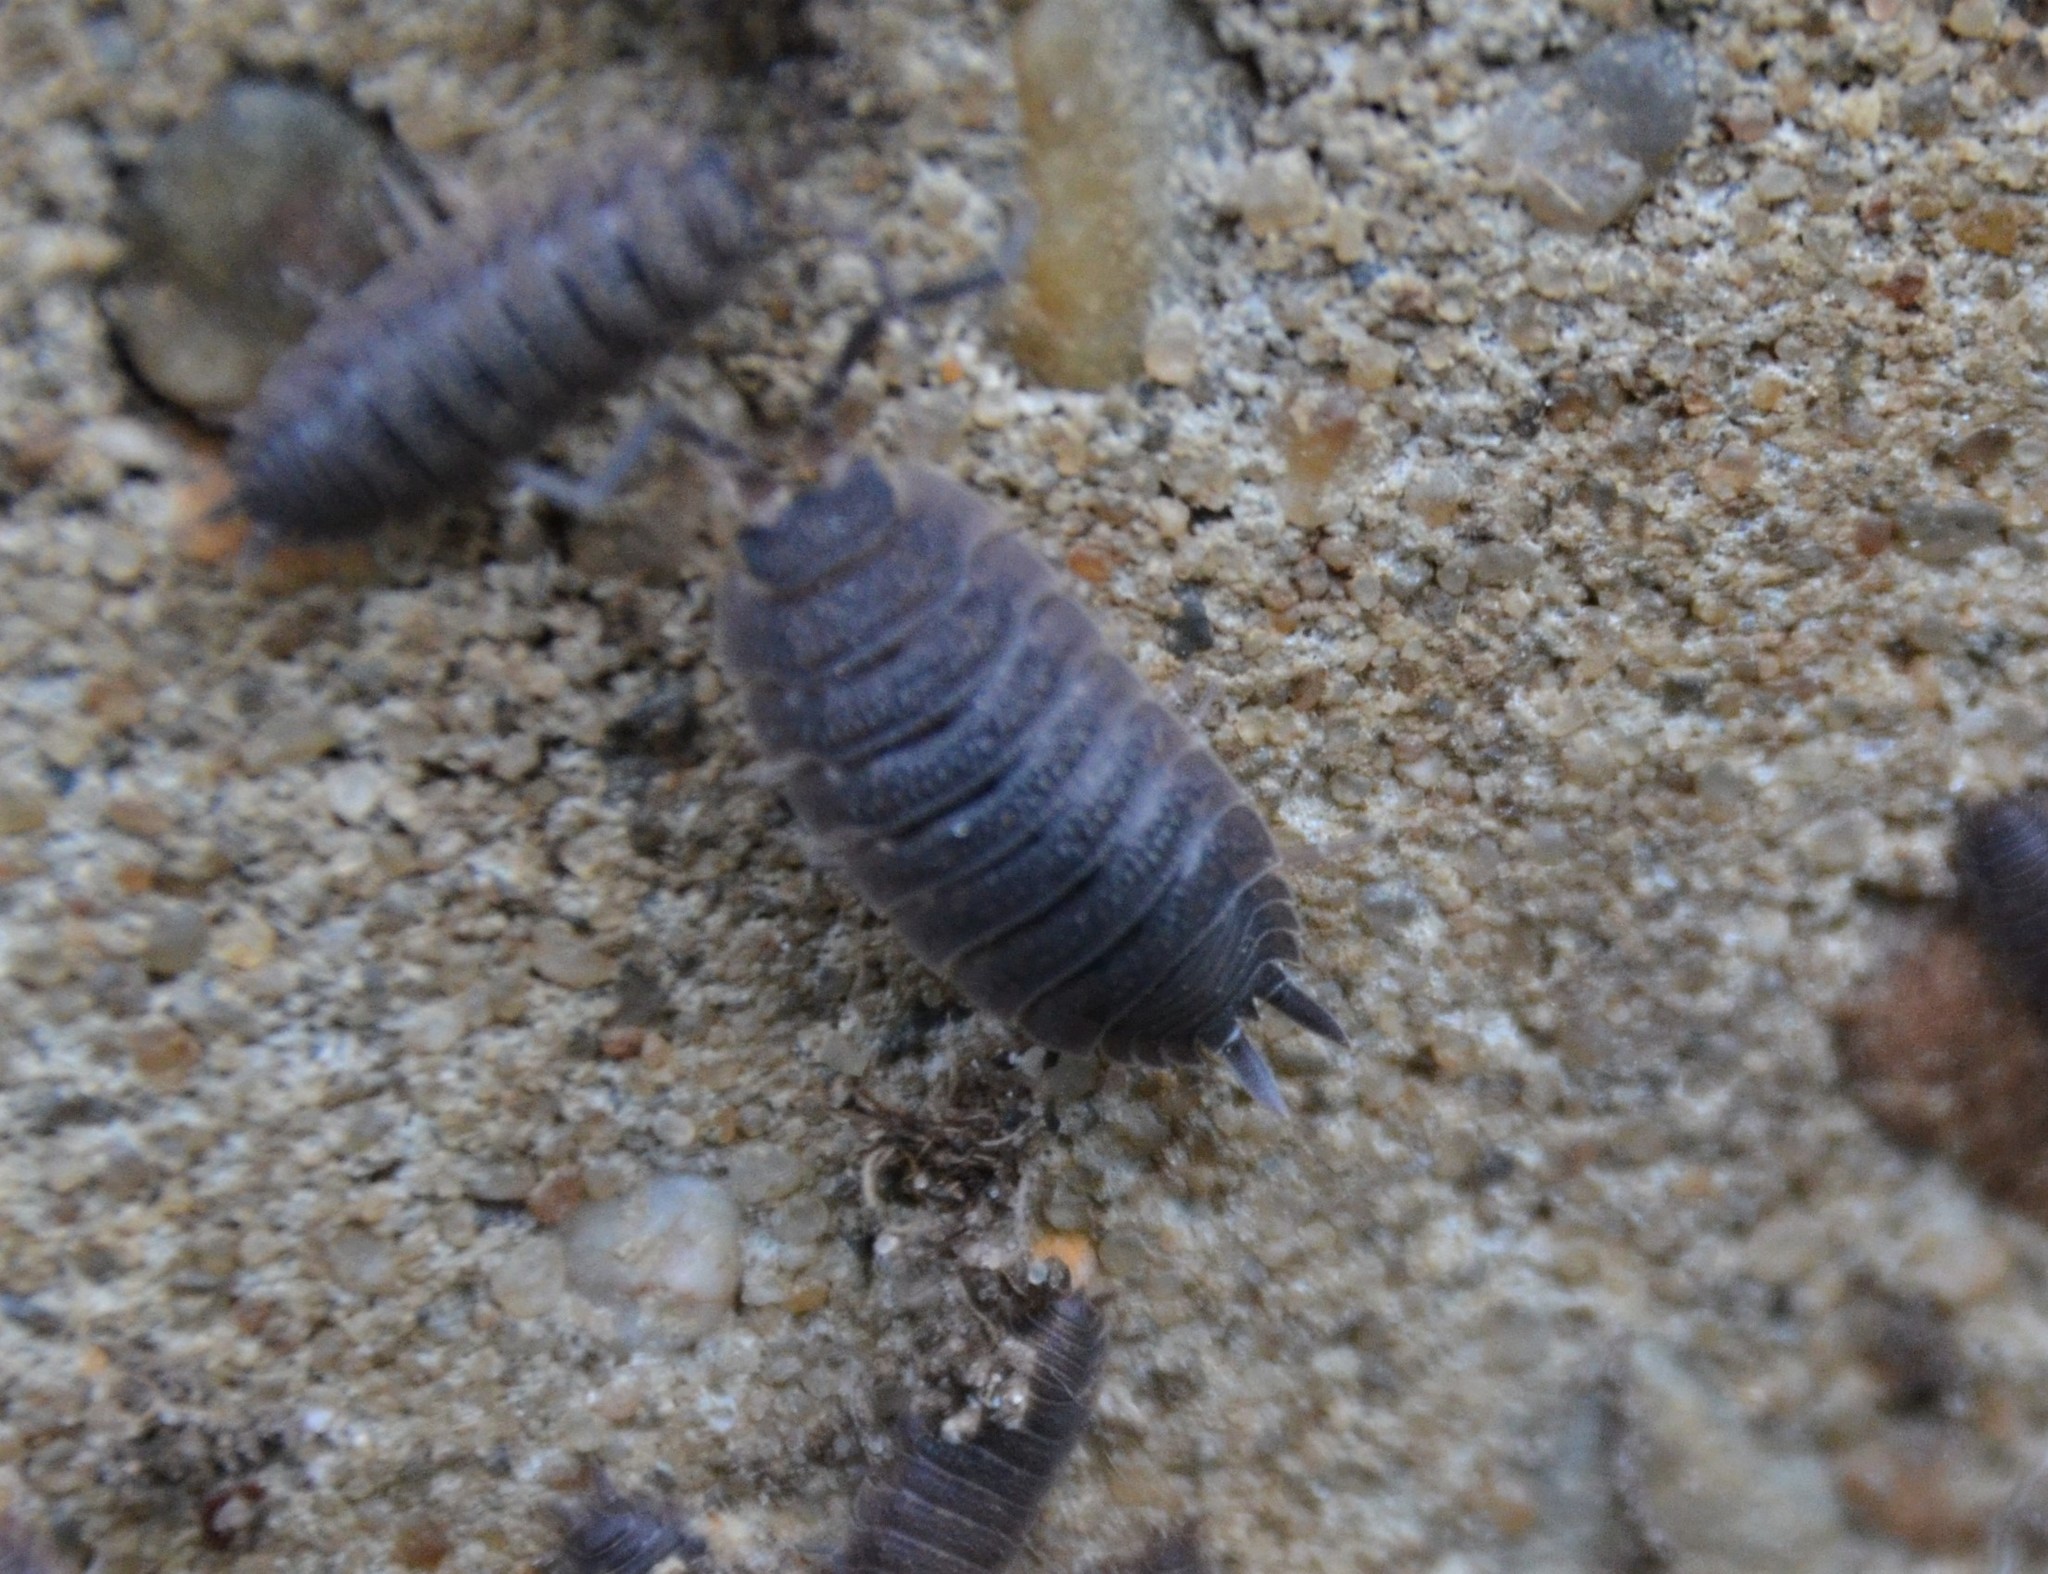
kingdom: Animalia
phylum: Arthropoda
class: Malacostraca
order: Isopoda
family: Porcellionidae
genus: Porcellio
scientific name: Porcellio scaber
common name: Common rough woodlouse
